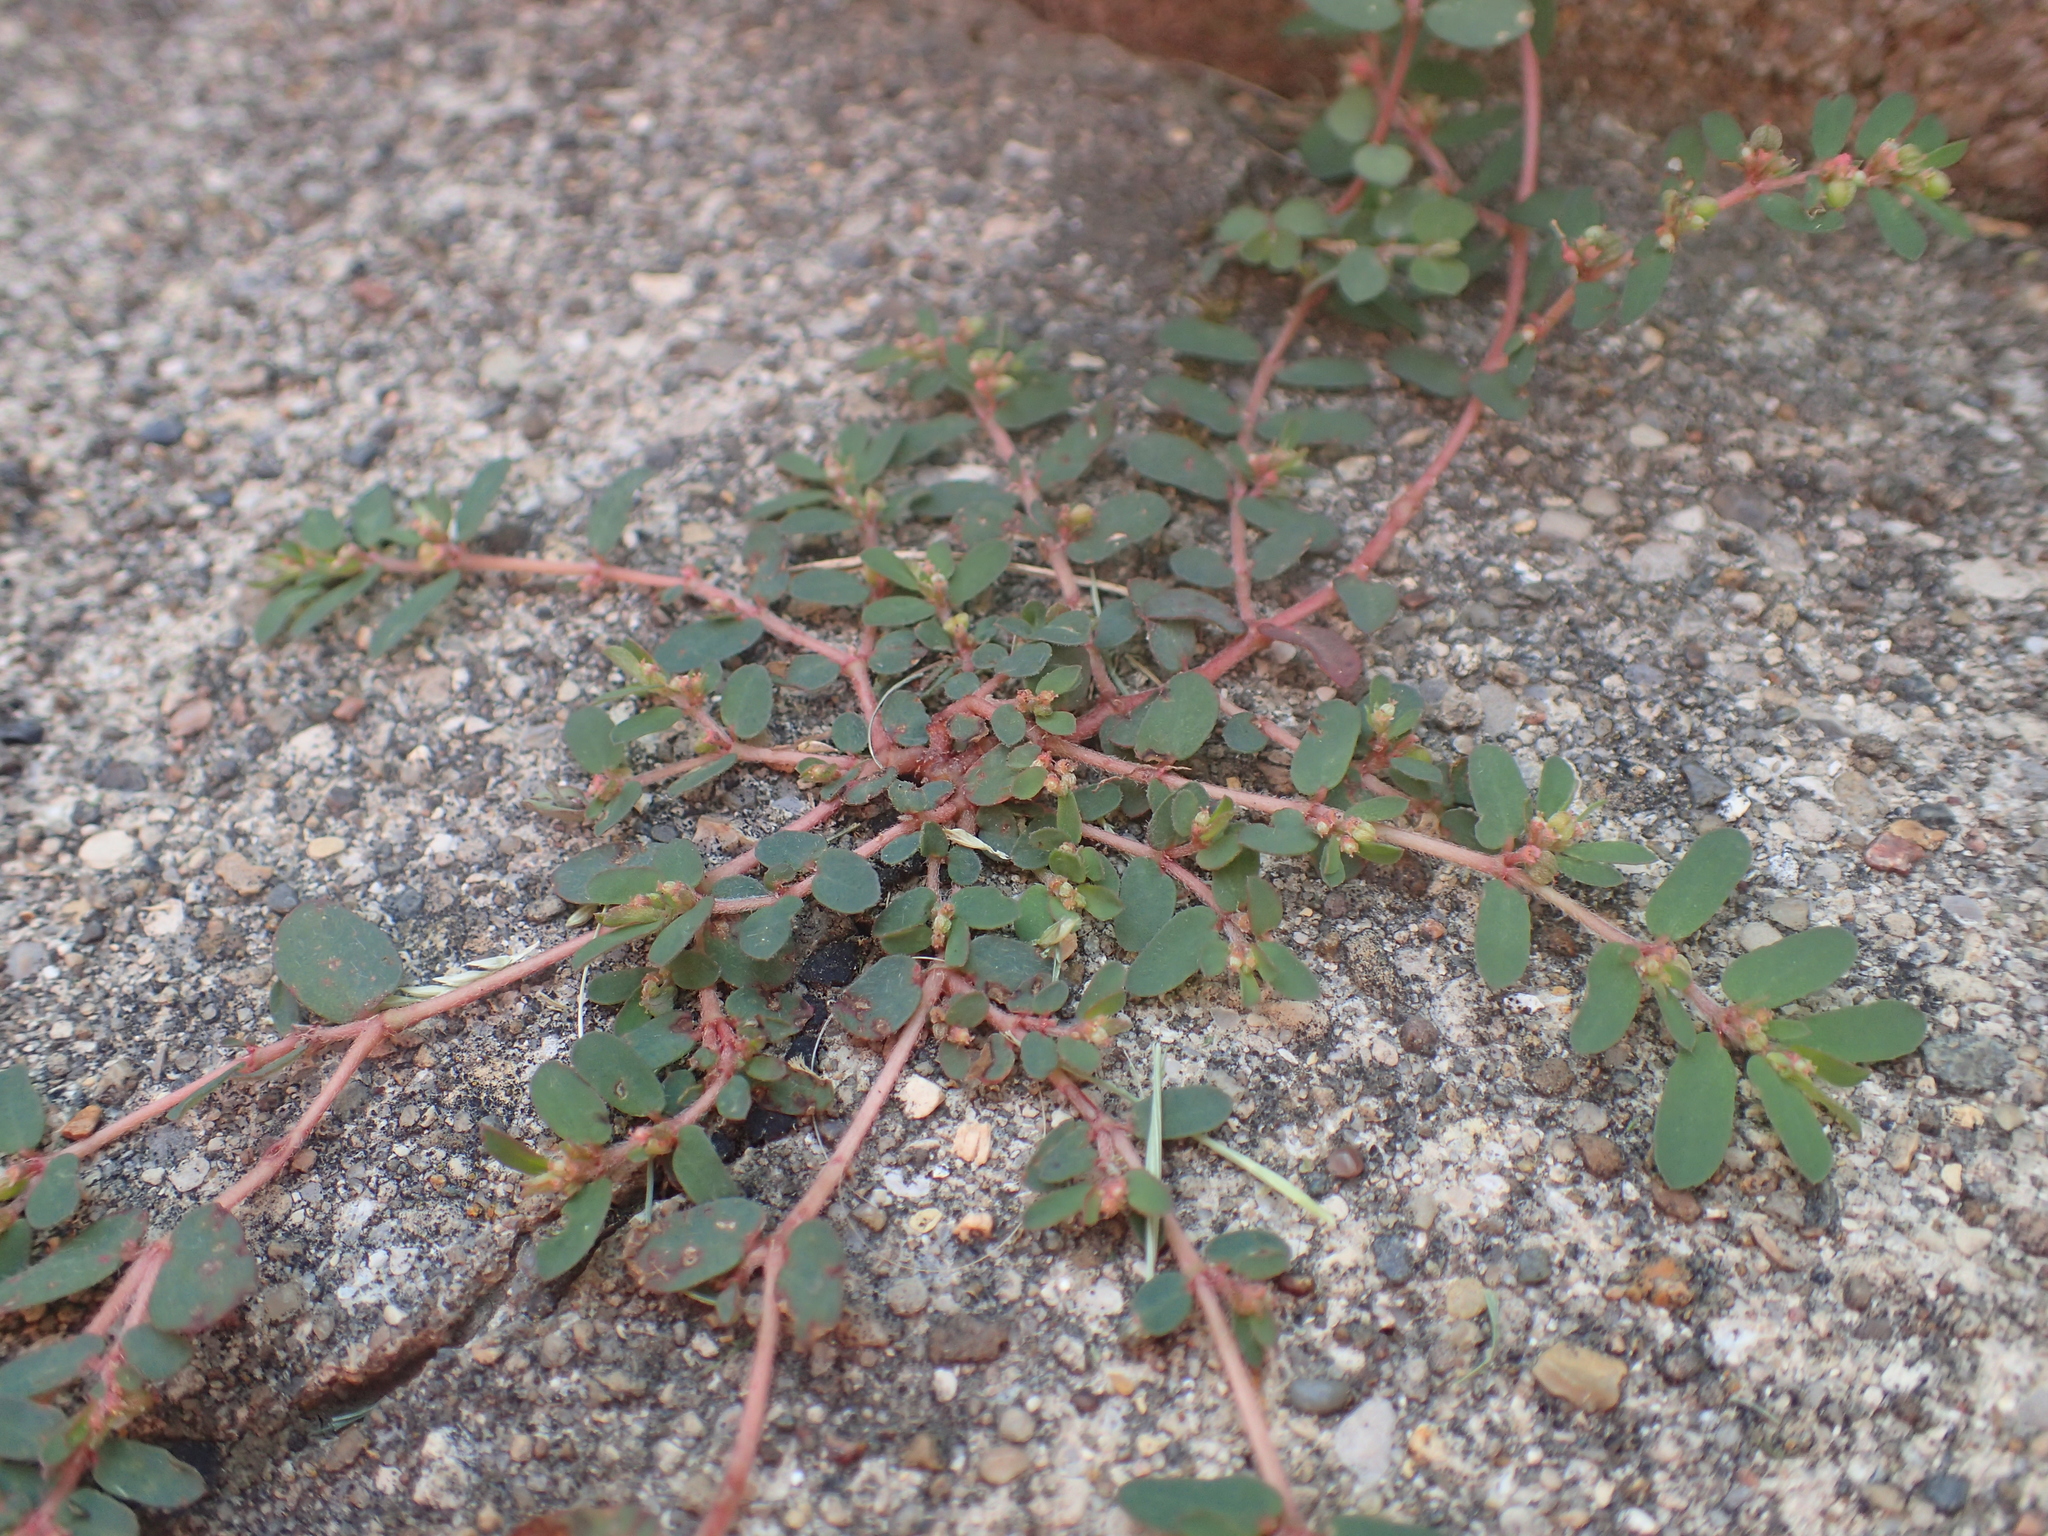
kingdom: Plantae
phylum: Tracheophyta
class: Magnoliopsida
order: Malpighiales
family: Euphorbiaceae
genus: Euphorbia
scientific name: Euphorbia maculata
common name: Spotted spurge
